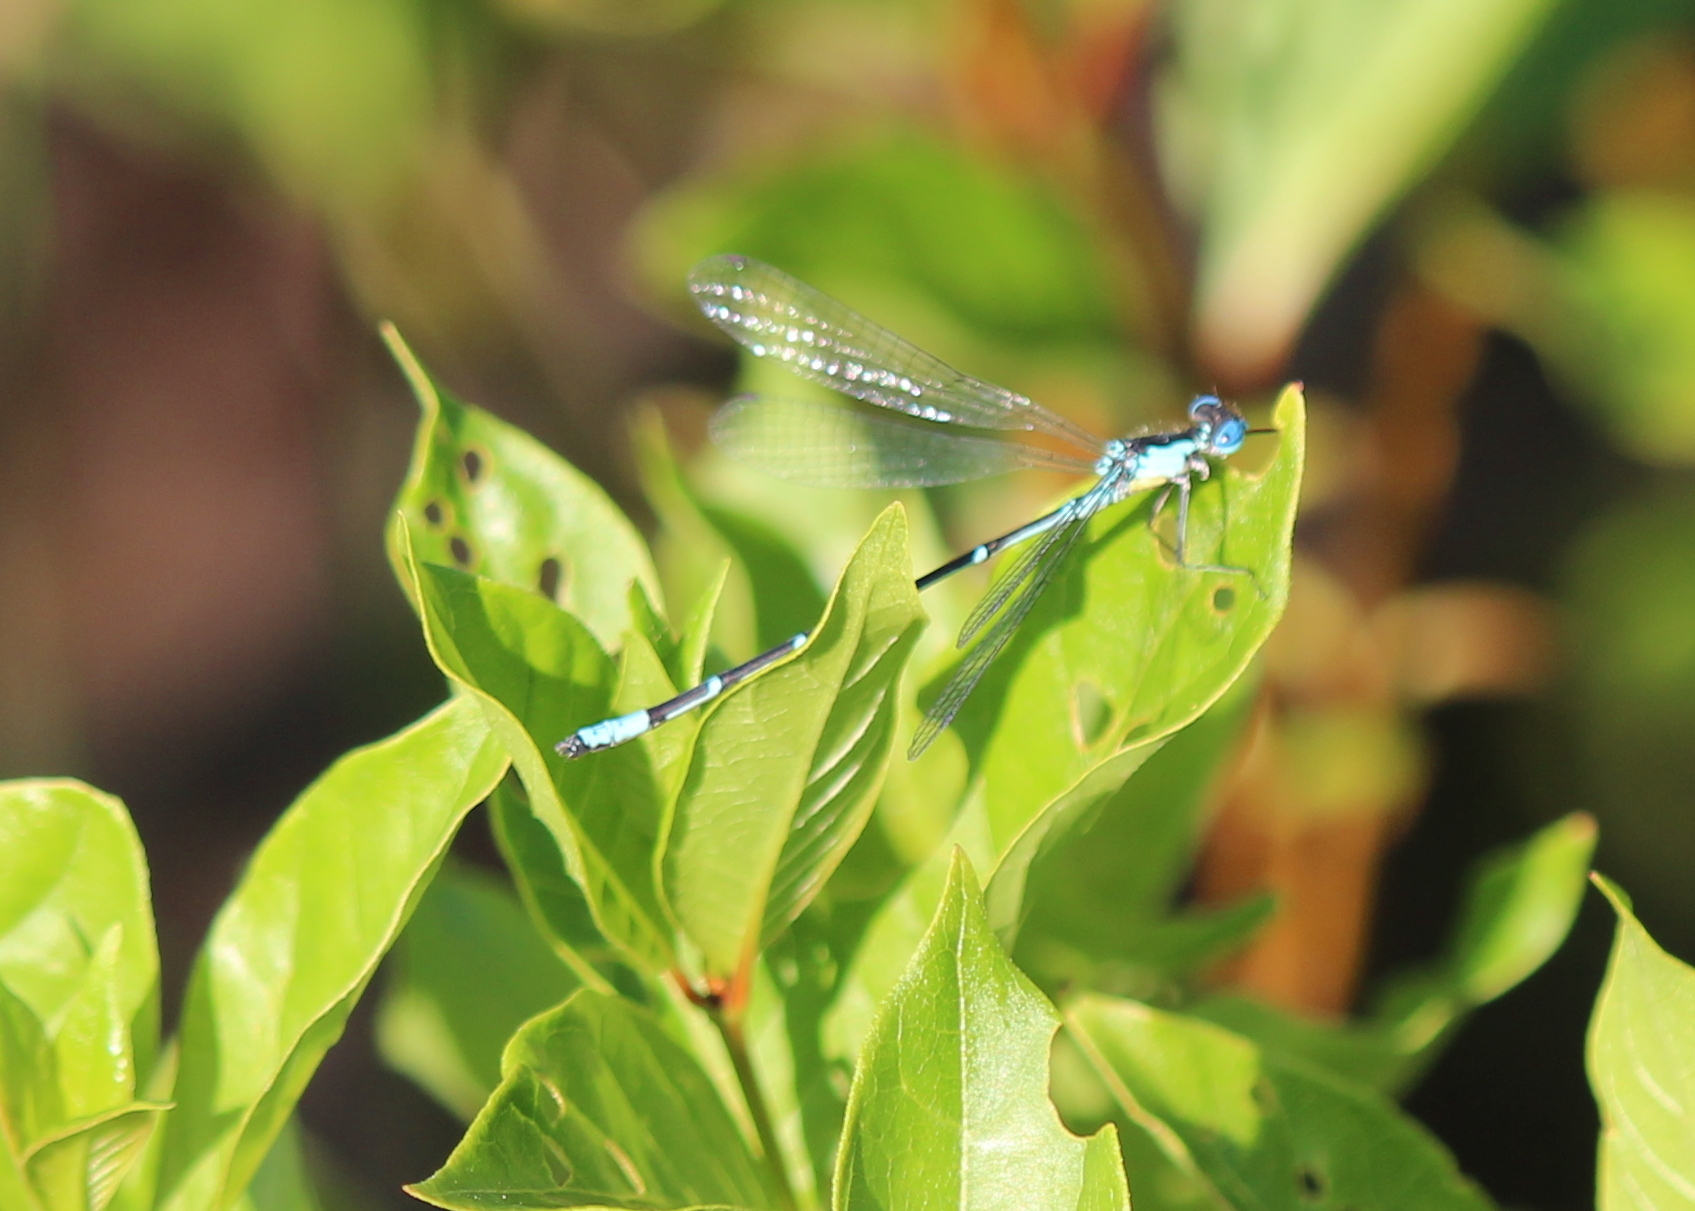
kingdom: Animalia
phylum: Arthropoda
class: Insecta
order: Odonata
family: Coenagrionidae
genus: Chromagrion
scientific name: Chromagrion conditum
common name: Aurora damsel
